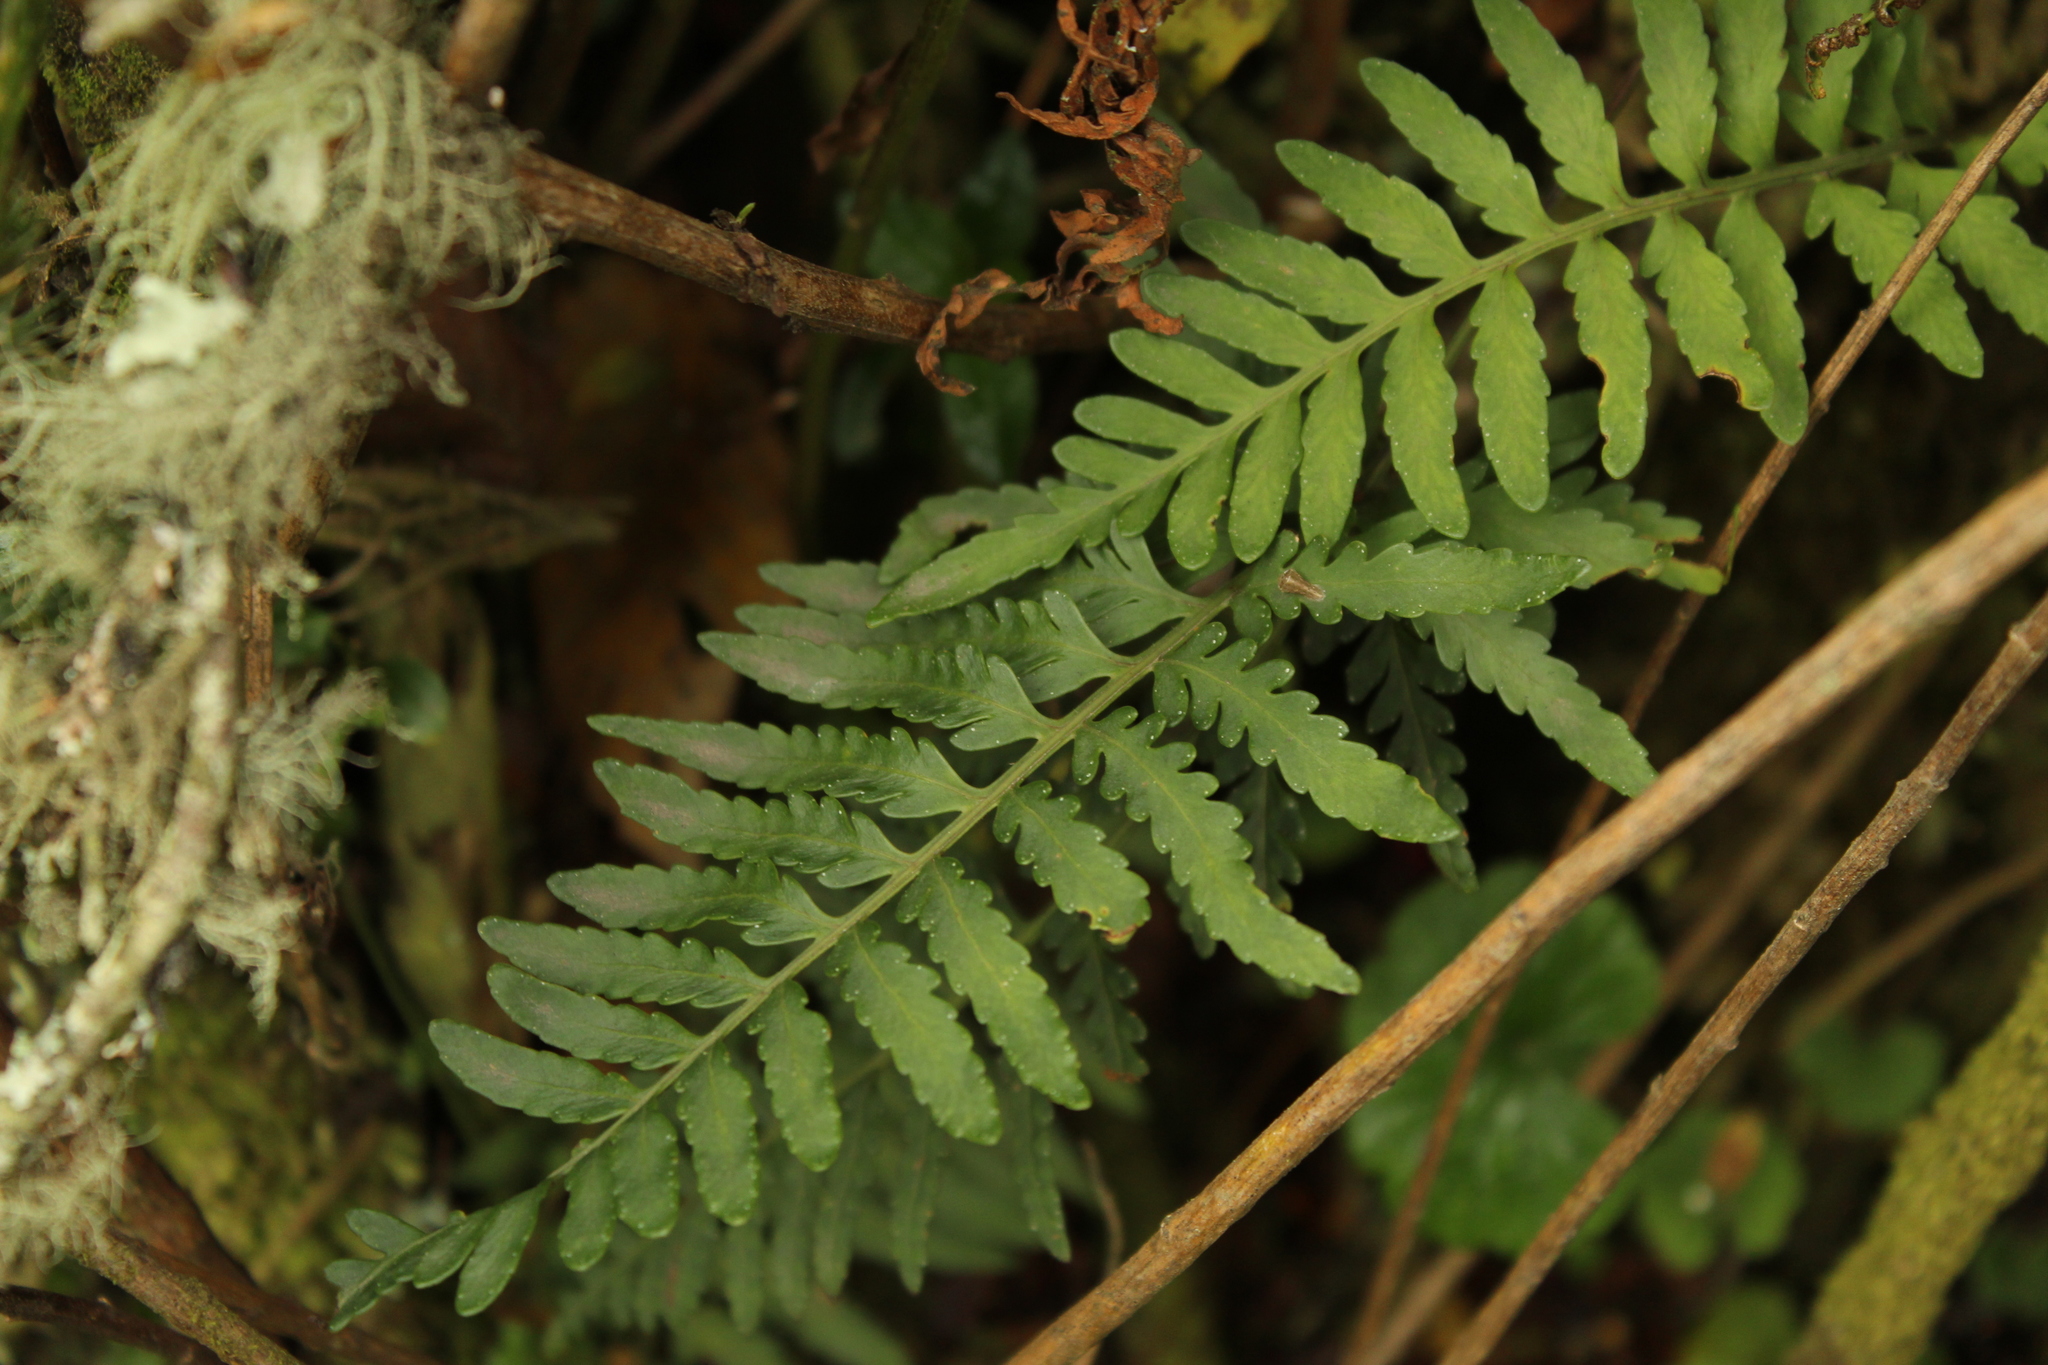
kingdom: Plantae
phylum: Tracheophyta
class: Polypodiopsida
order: Polypodiales
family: Polypodiaceae
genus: Pleopeltis
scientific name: Pleopeltis murora
